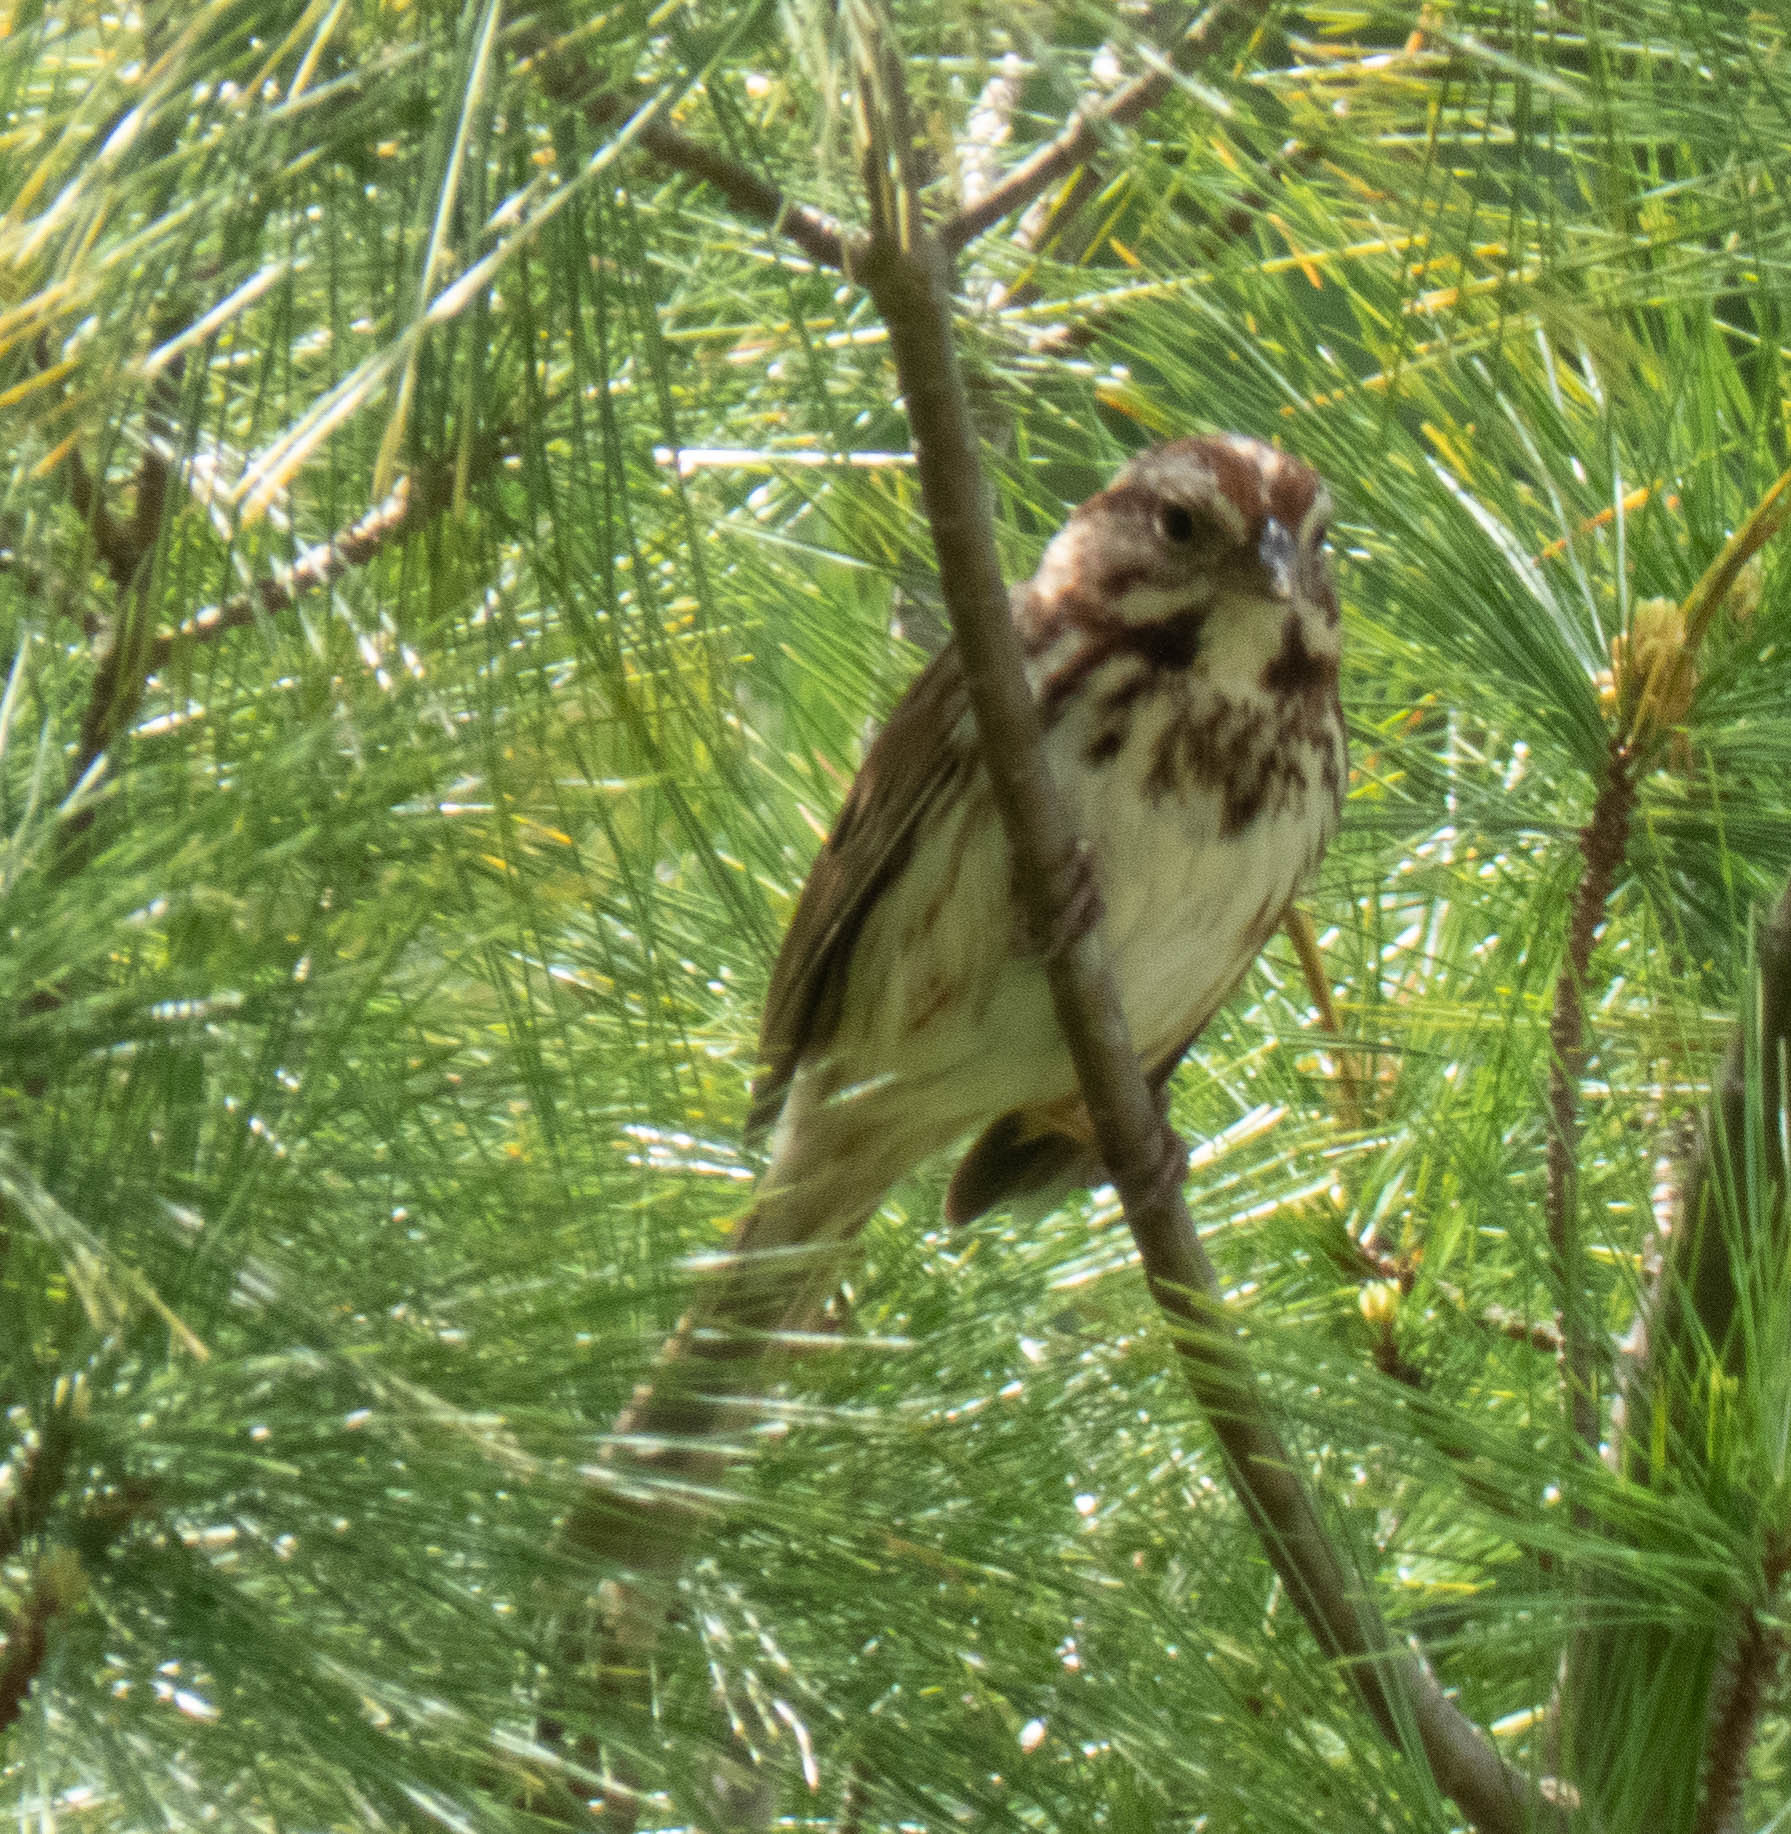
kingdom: Animalia
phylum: Chordata
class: Aves
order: Passeriformes
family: Passerellidae
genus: Melospiza
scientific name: Melospiza melodia
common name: Song sparrow
